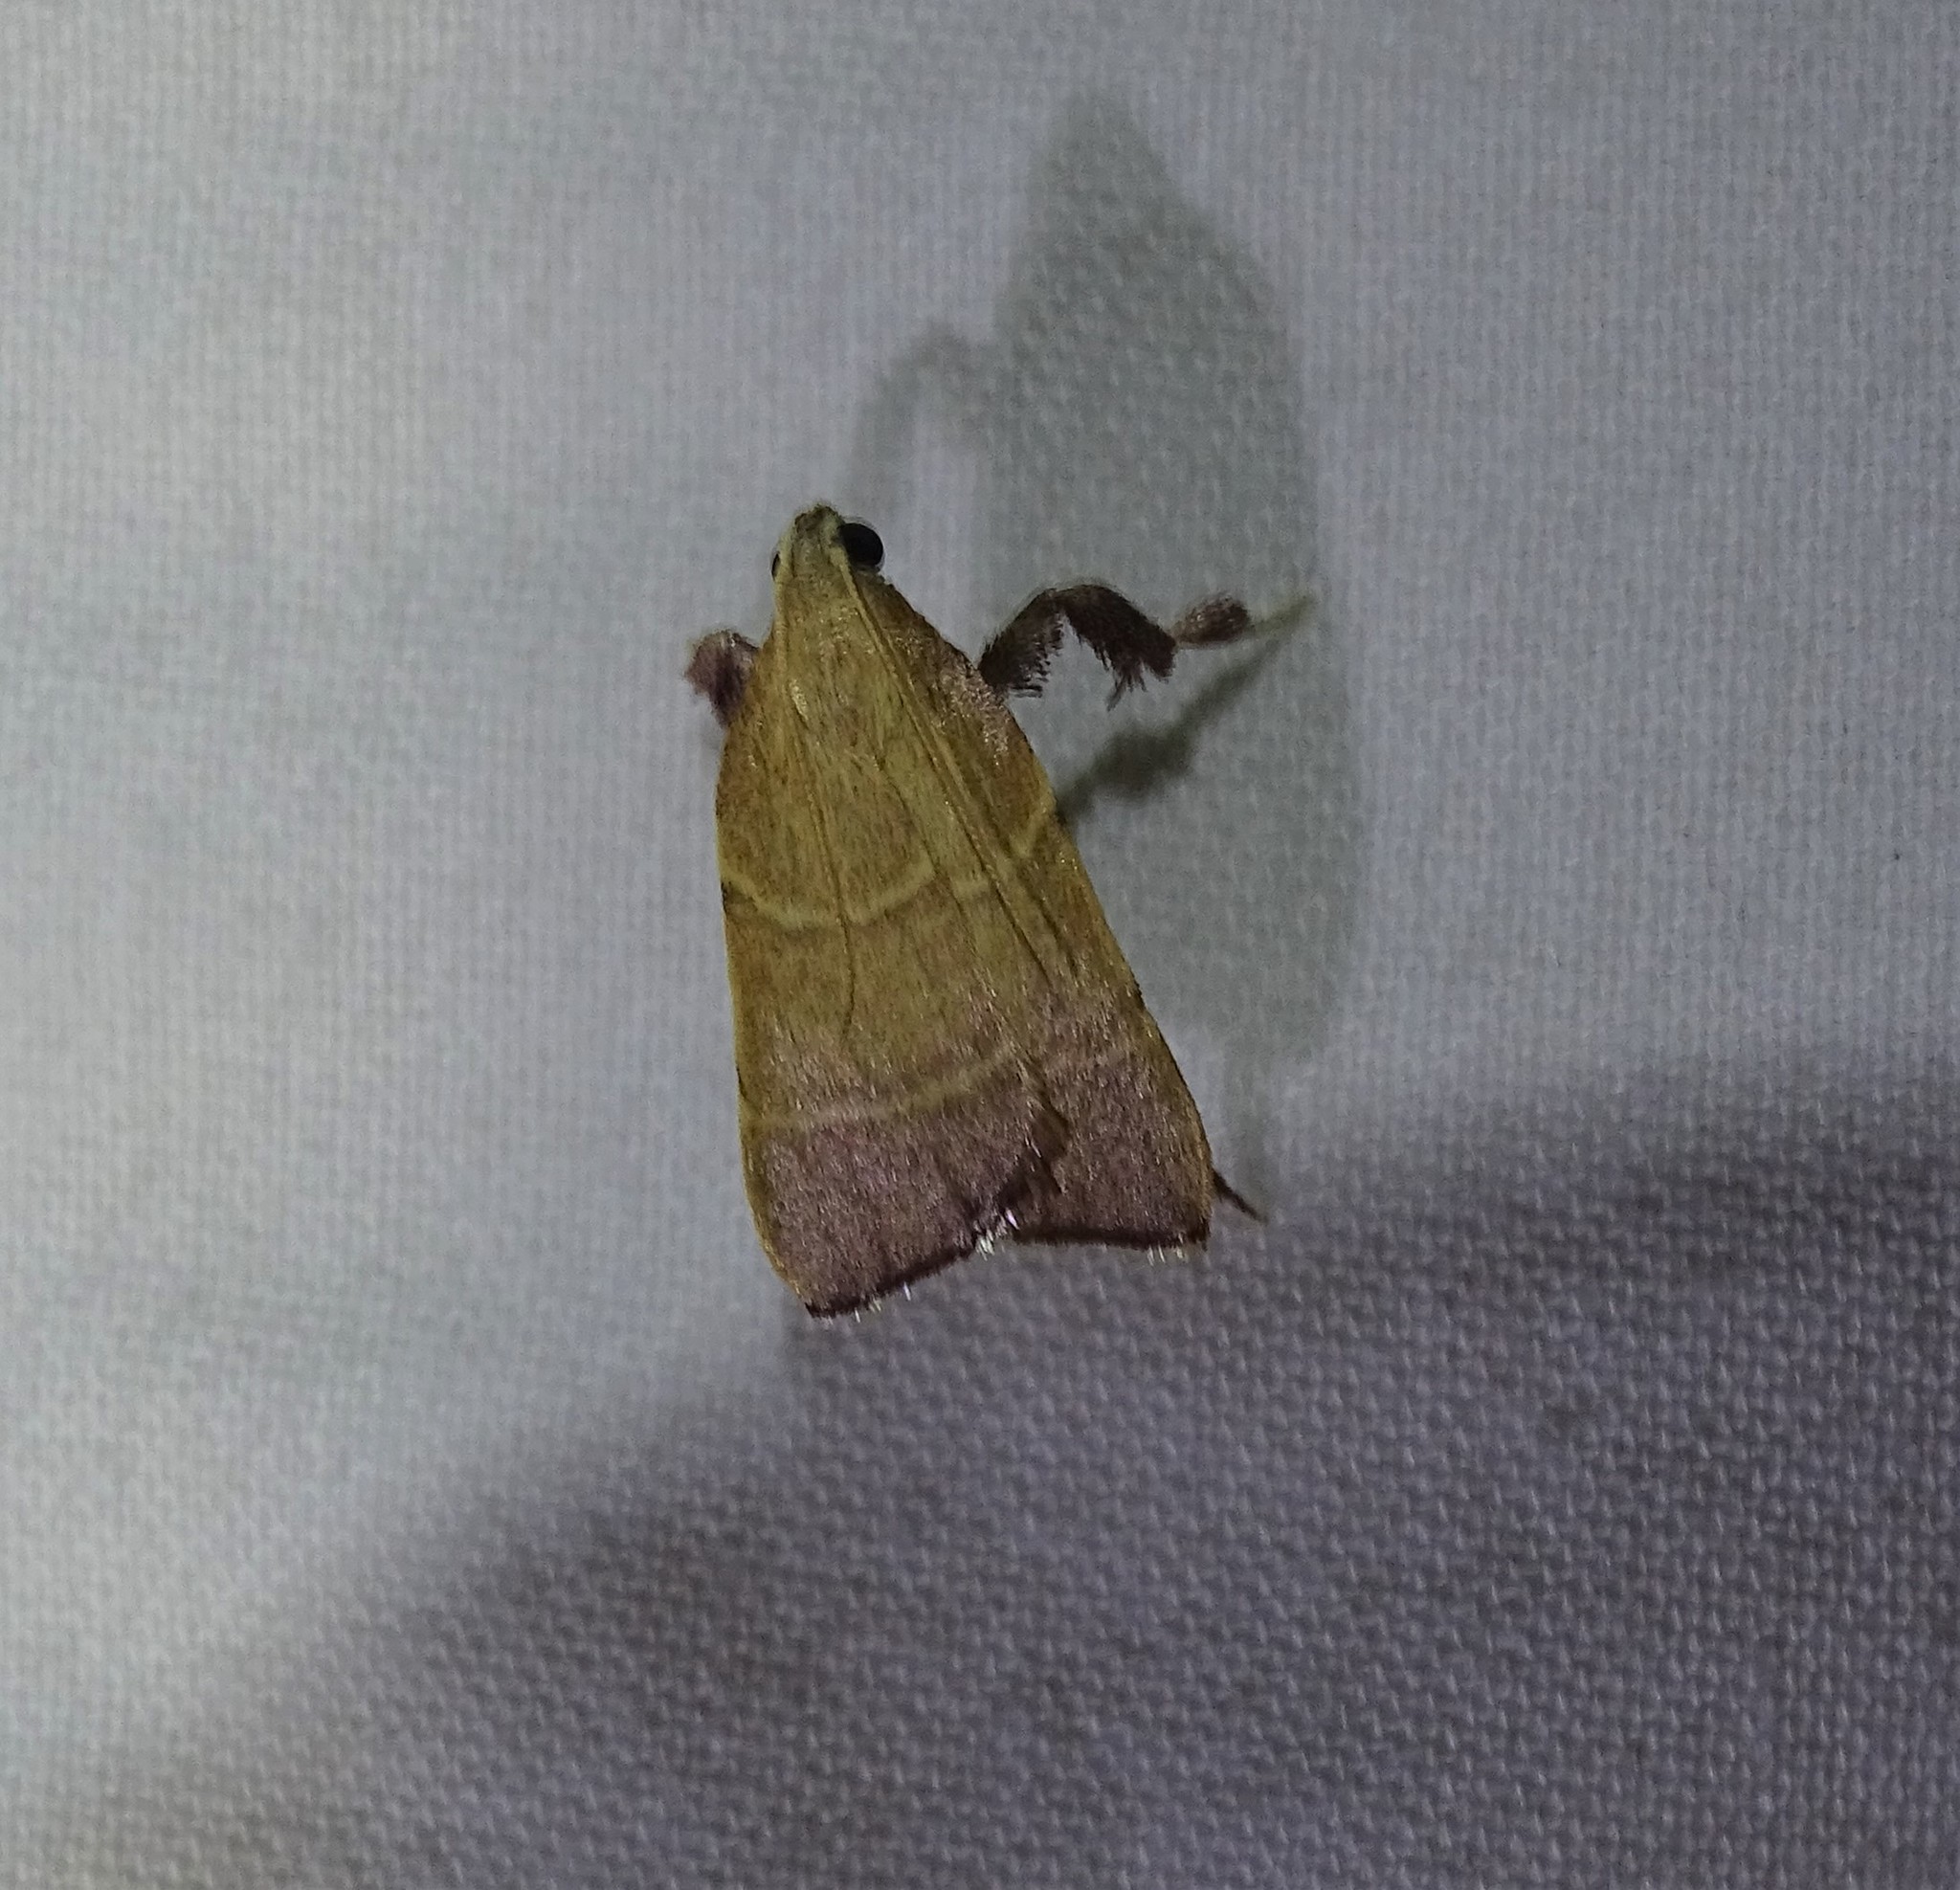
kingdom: Animalia
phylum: Arthropoda
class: Insecta
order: Lepidoptera
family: Pyralidae
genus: Parachma
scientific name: Parachma ochracealis
